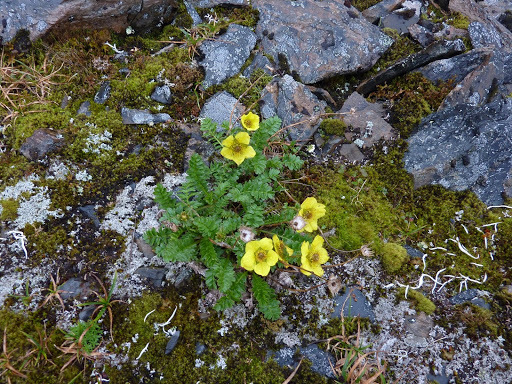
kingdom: Plantae
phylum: Tracheophyta
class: Magnoliopsida
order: Rosales
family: Rosaceae
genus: Geum
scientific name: Geum rossii
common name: Alpine avens
